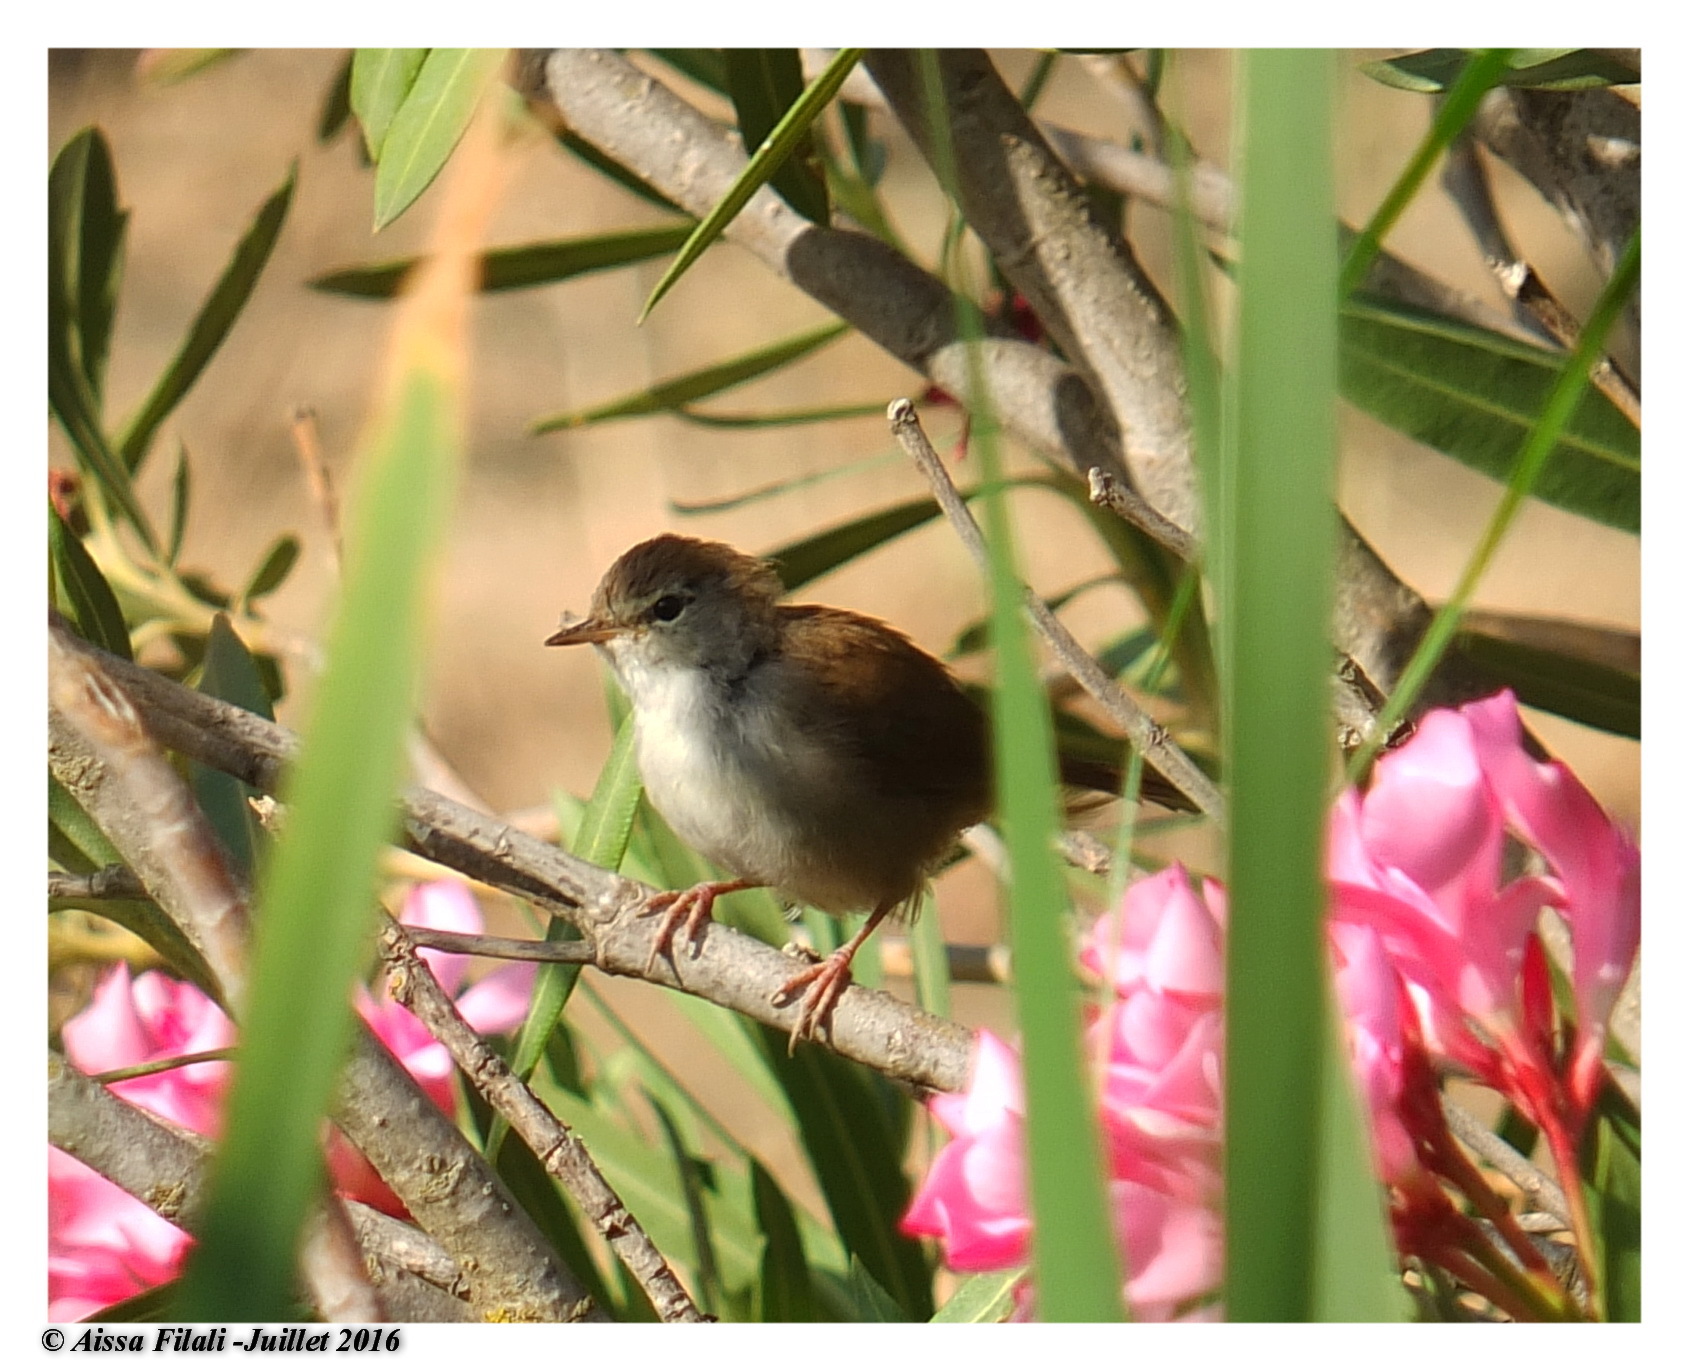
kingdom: Animalia
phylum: Chordata
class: Aves
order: Passeriformes
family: Cettiidae
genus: Cettia
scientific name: Cettia cetti
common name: Cetti's warbler
